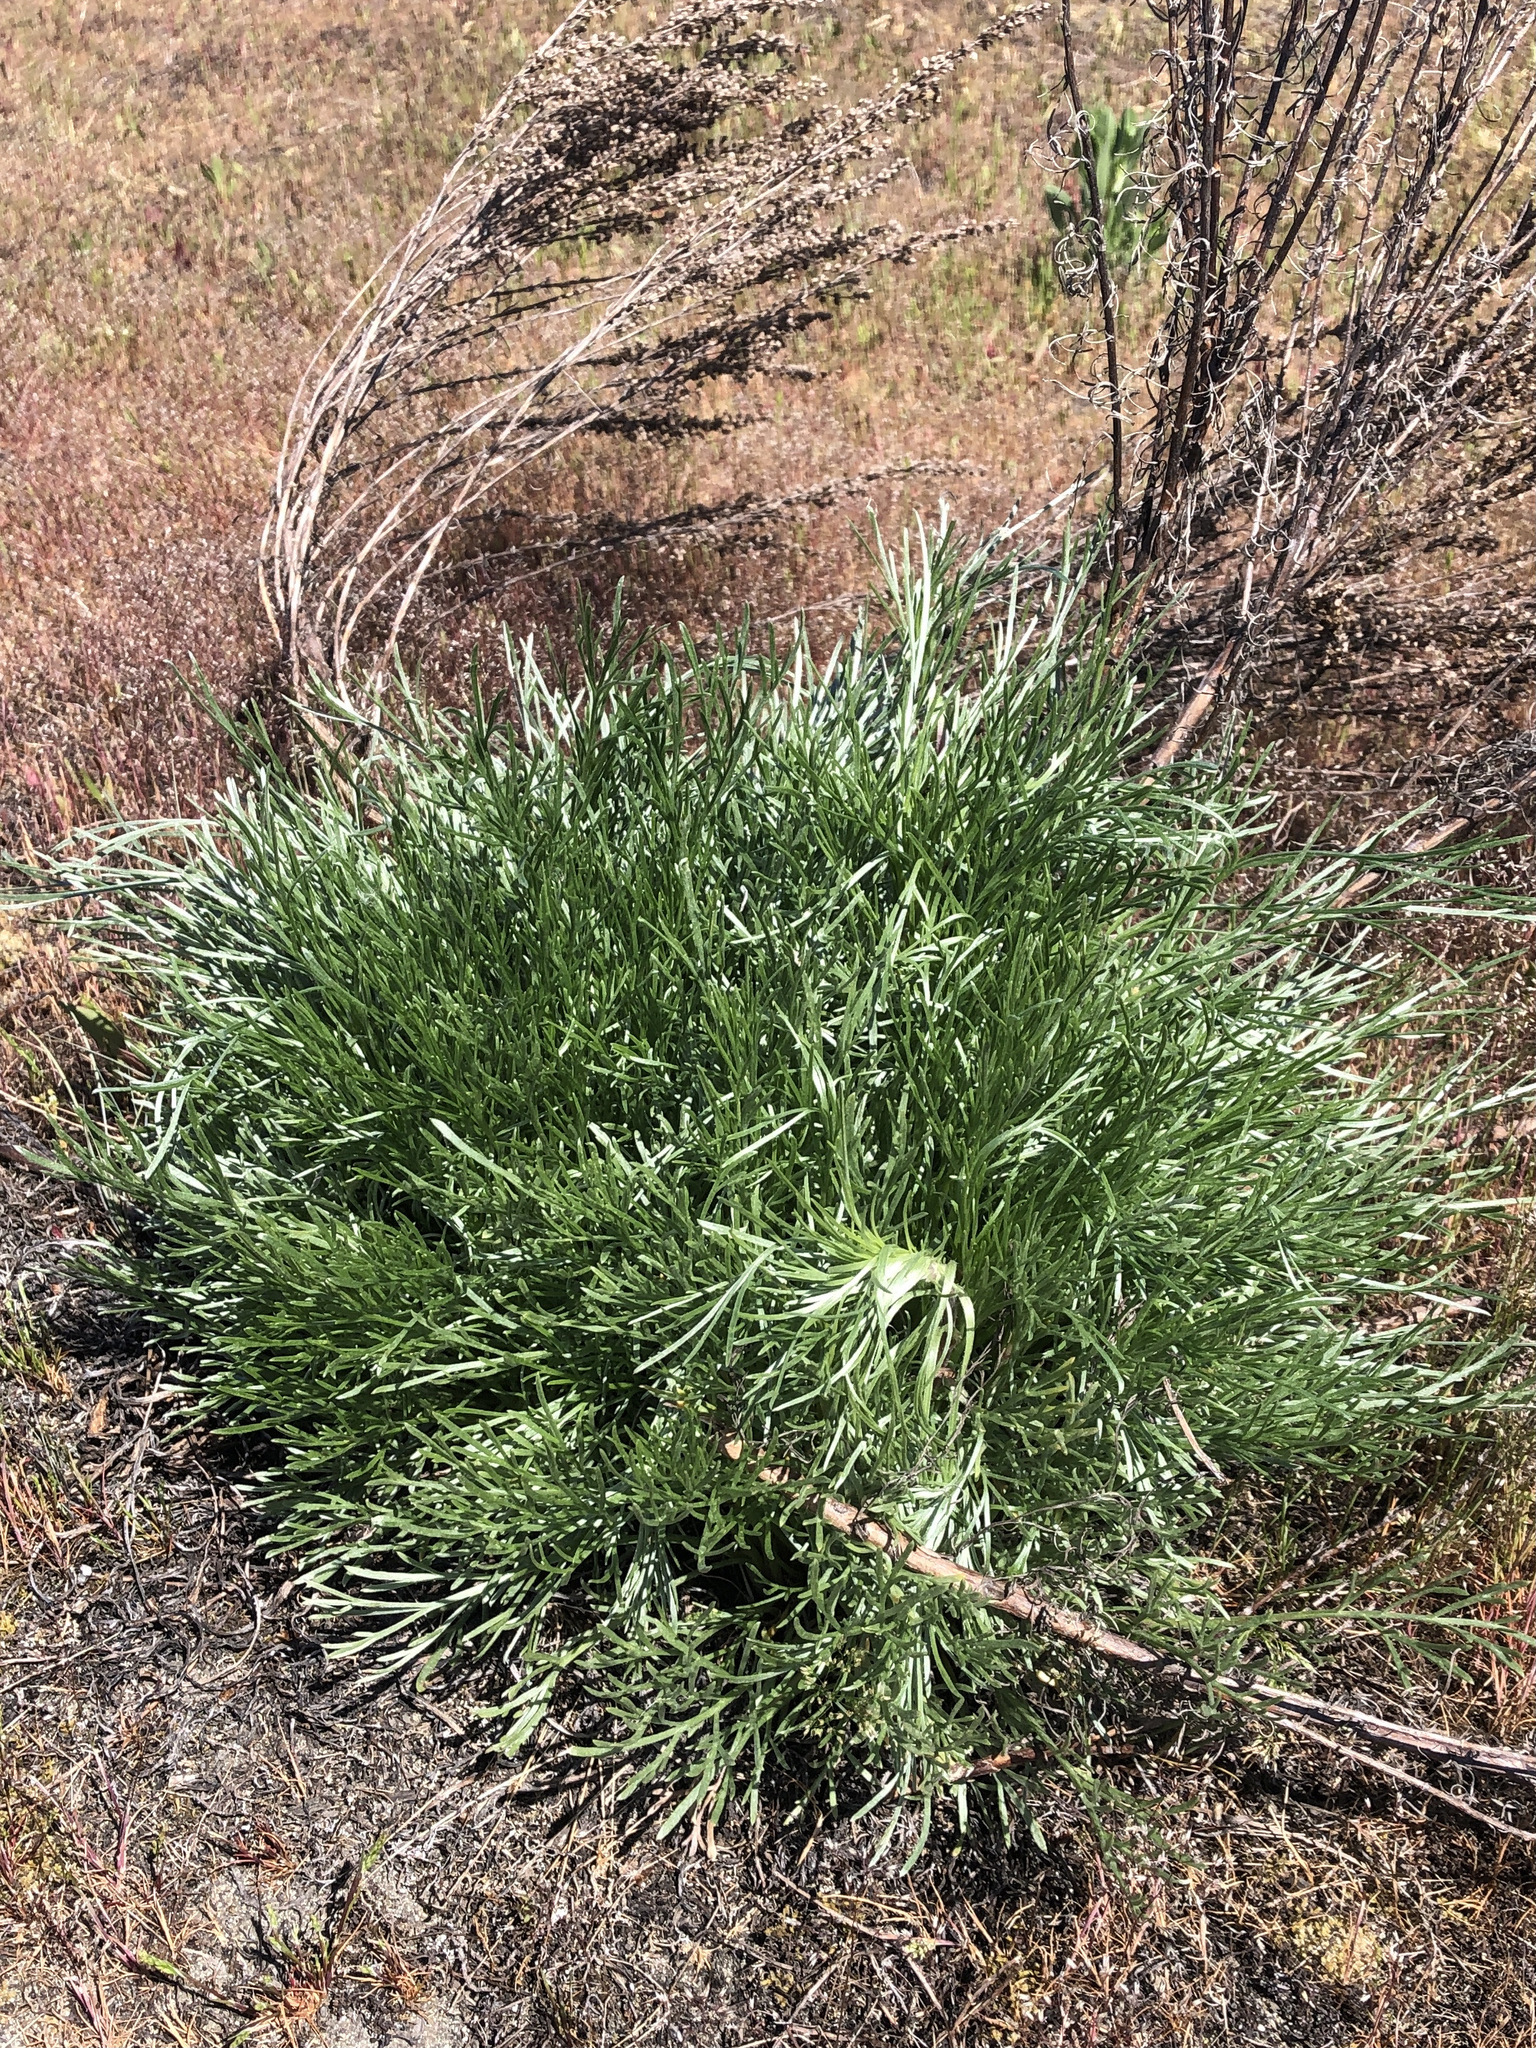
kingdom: Plantae
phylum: Tracheophyta
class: Magnoliopsida
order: Asterales
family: Asteraceae
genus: Artemisia
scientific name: Artemisia campestris
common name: Field wormwood
